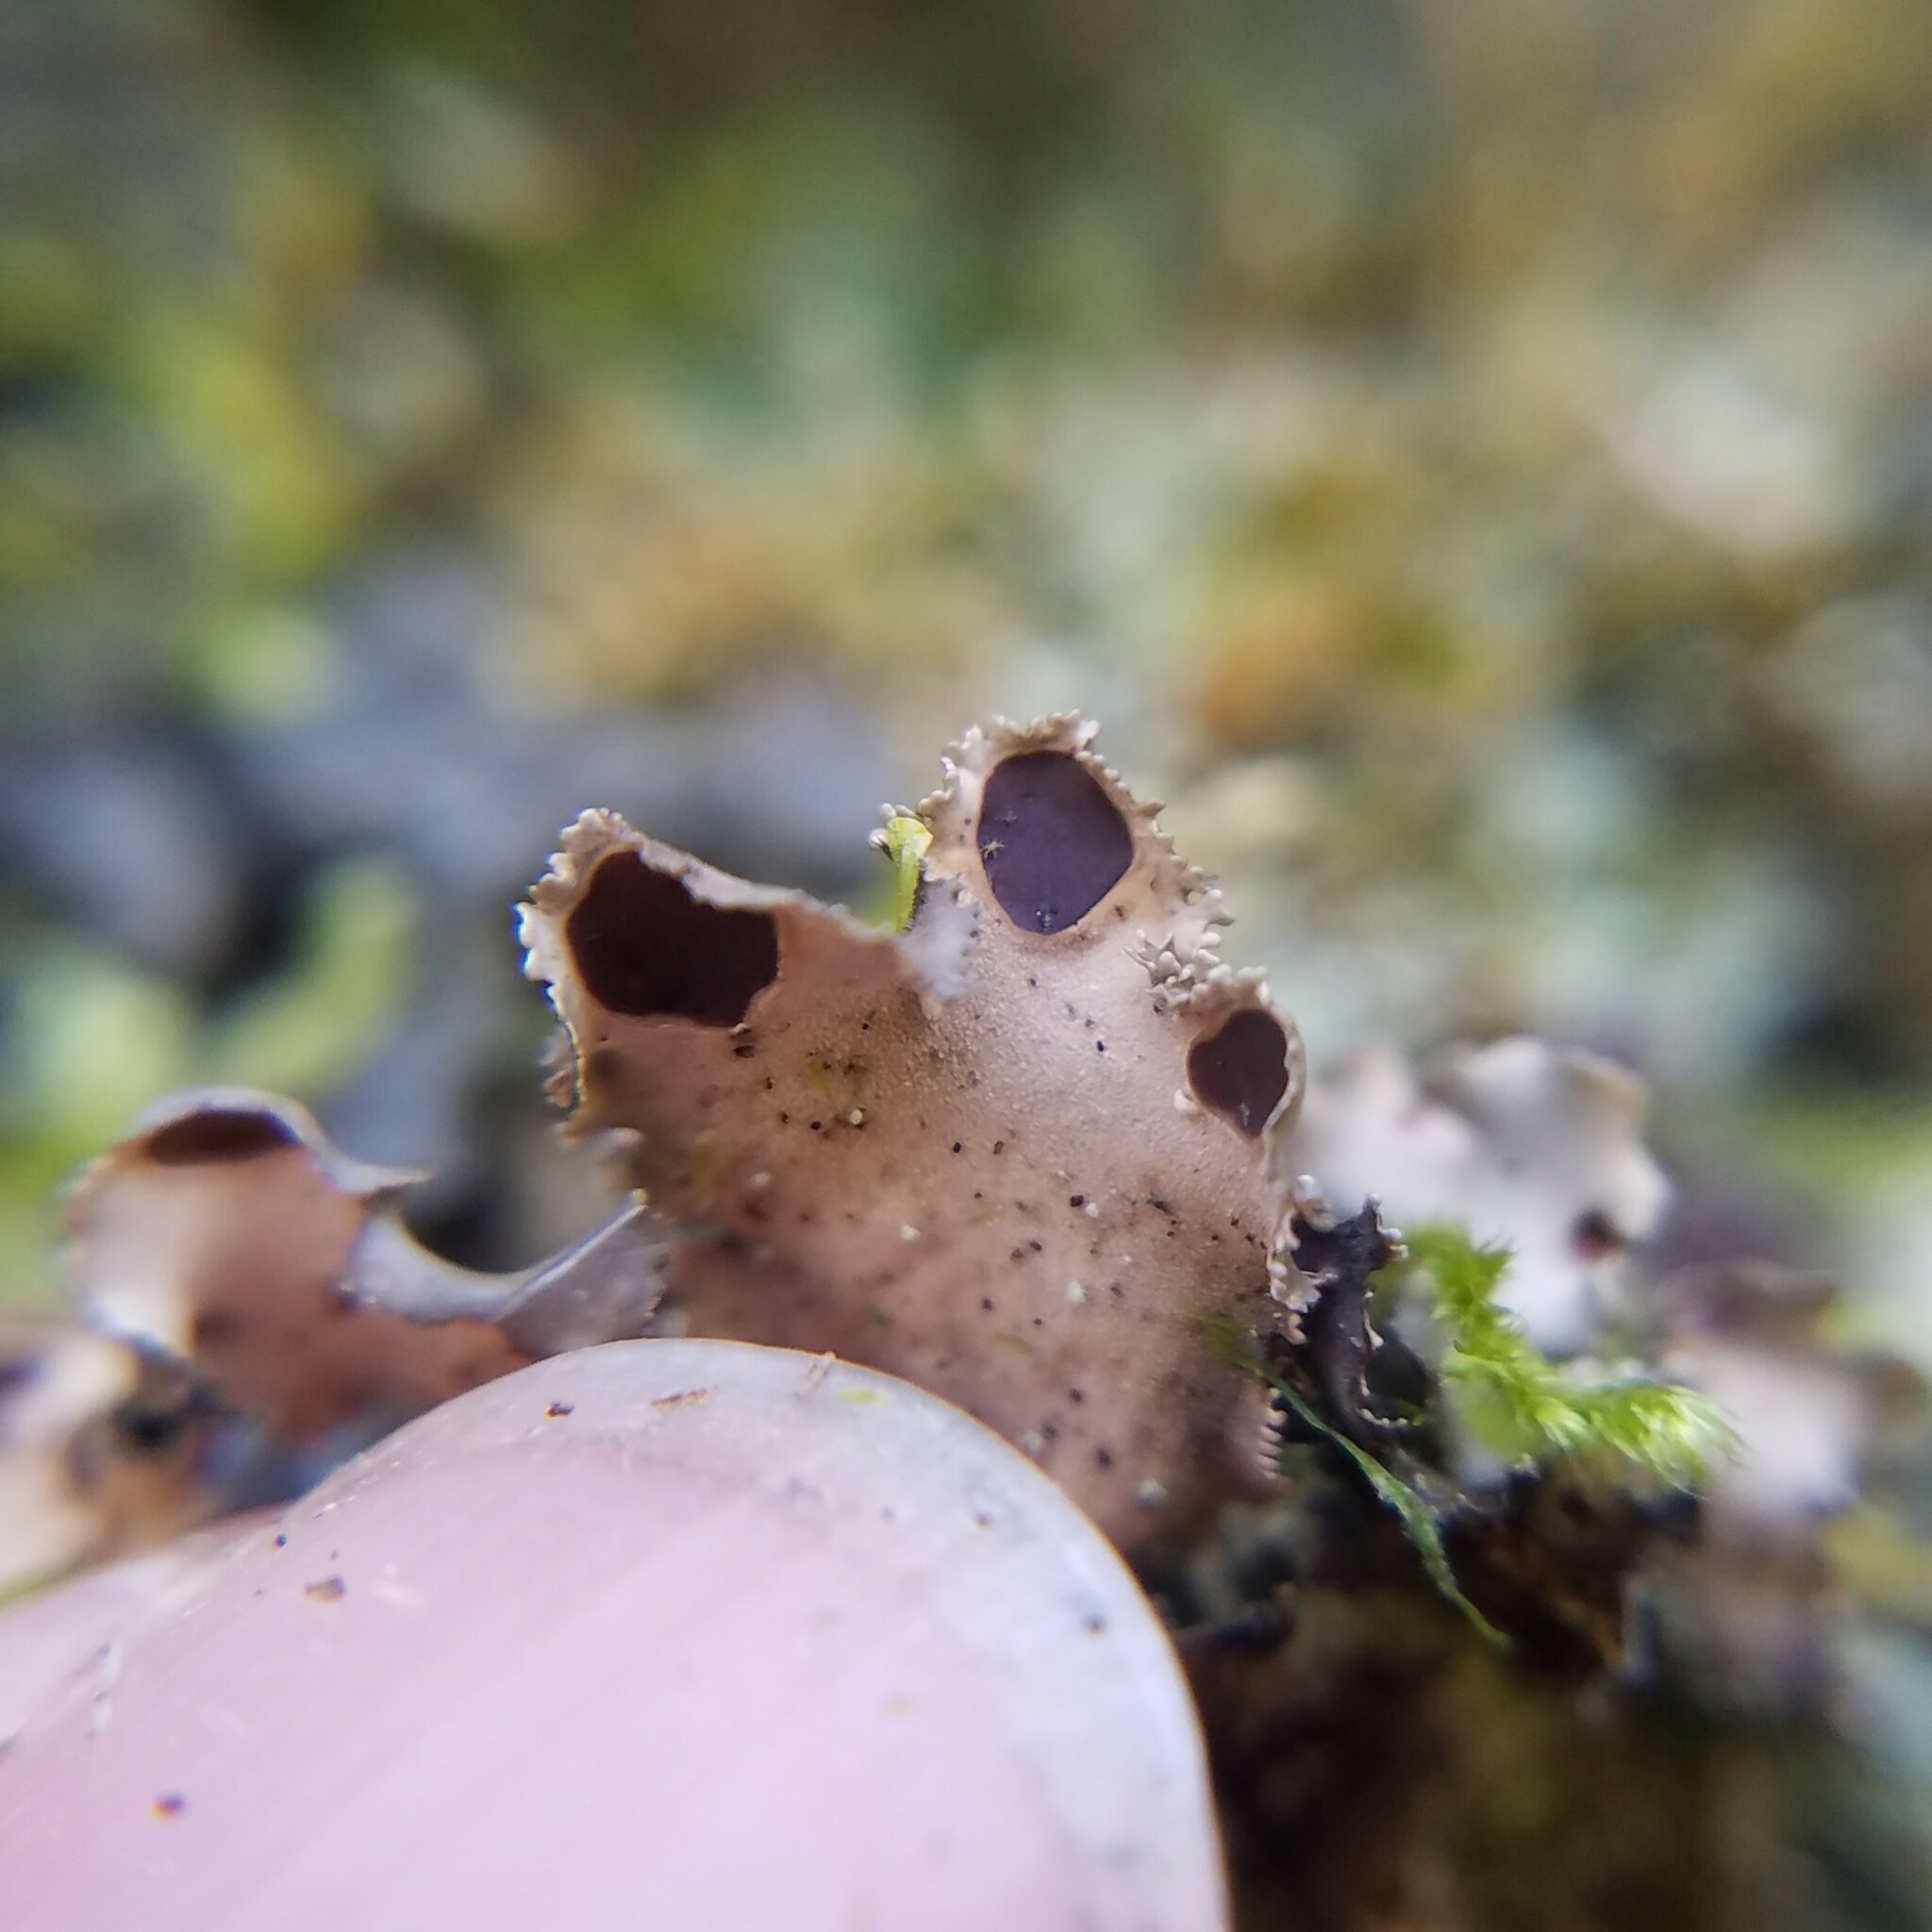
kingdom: Fungi
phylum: Ascomycota
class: Lecanoromycetes
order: Peltigerales
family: Nephromataceae
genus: Nephroma
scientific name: Nephroma helveticum
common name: Fringed kidney lichen
